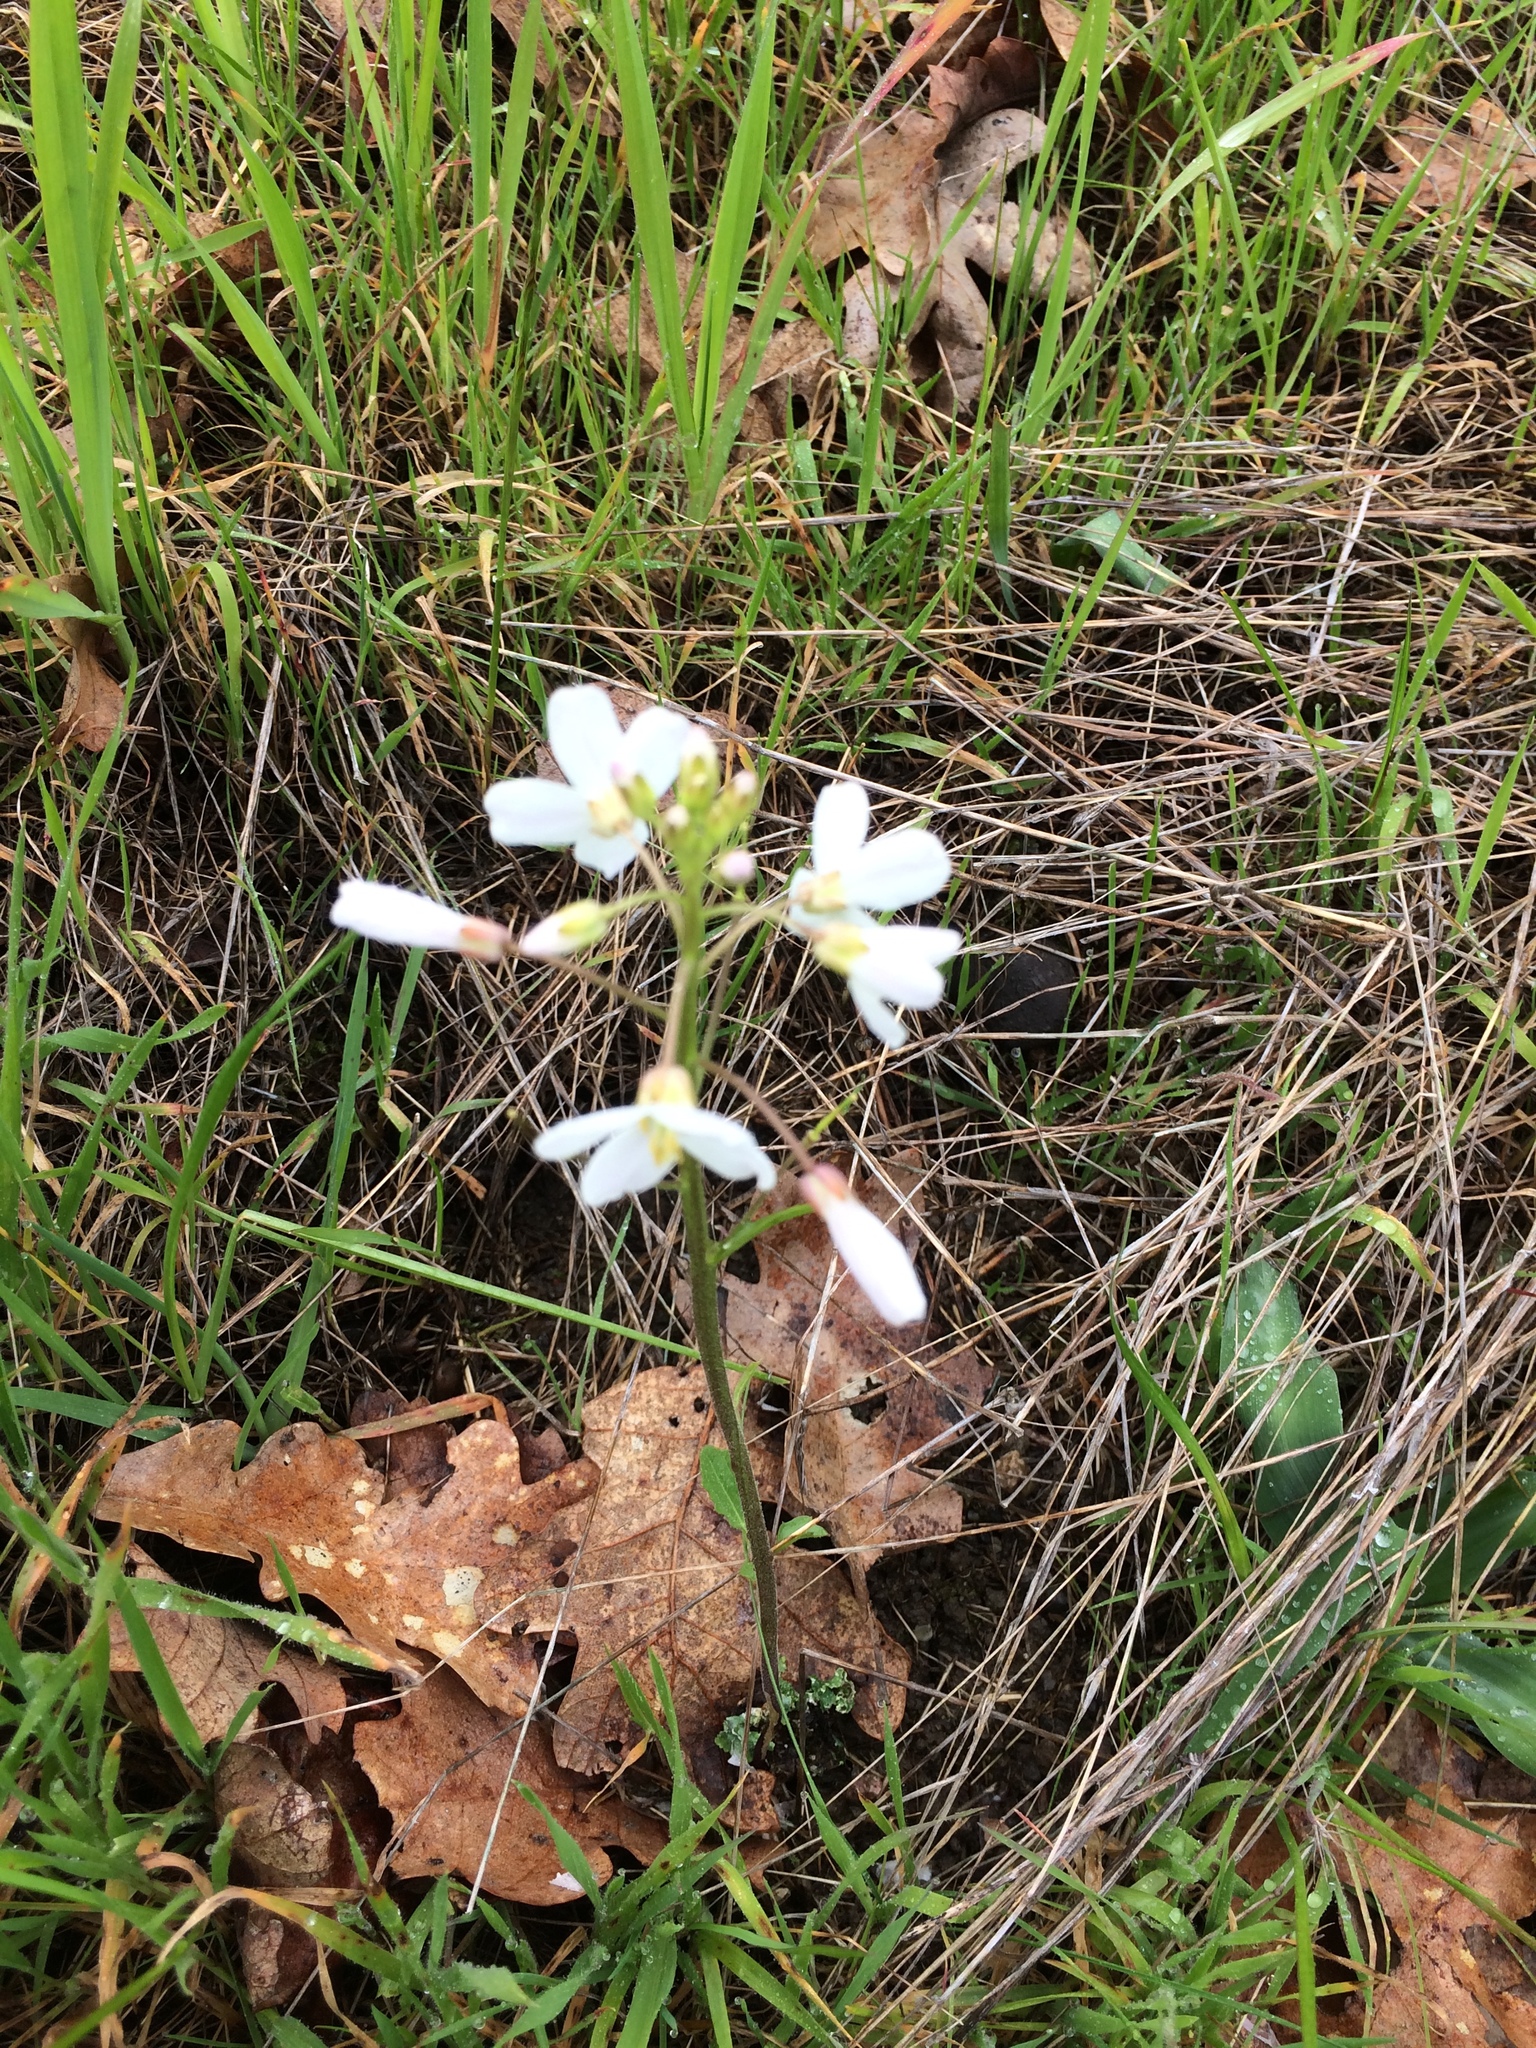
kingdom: Plantae
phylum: Tracheophyta
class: Magnoliopsida
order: Brassicales
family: Brassicaceae
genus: Cardamine
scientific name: Cardamine californica
